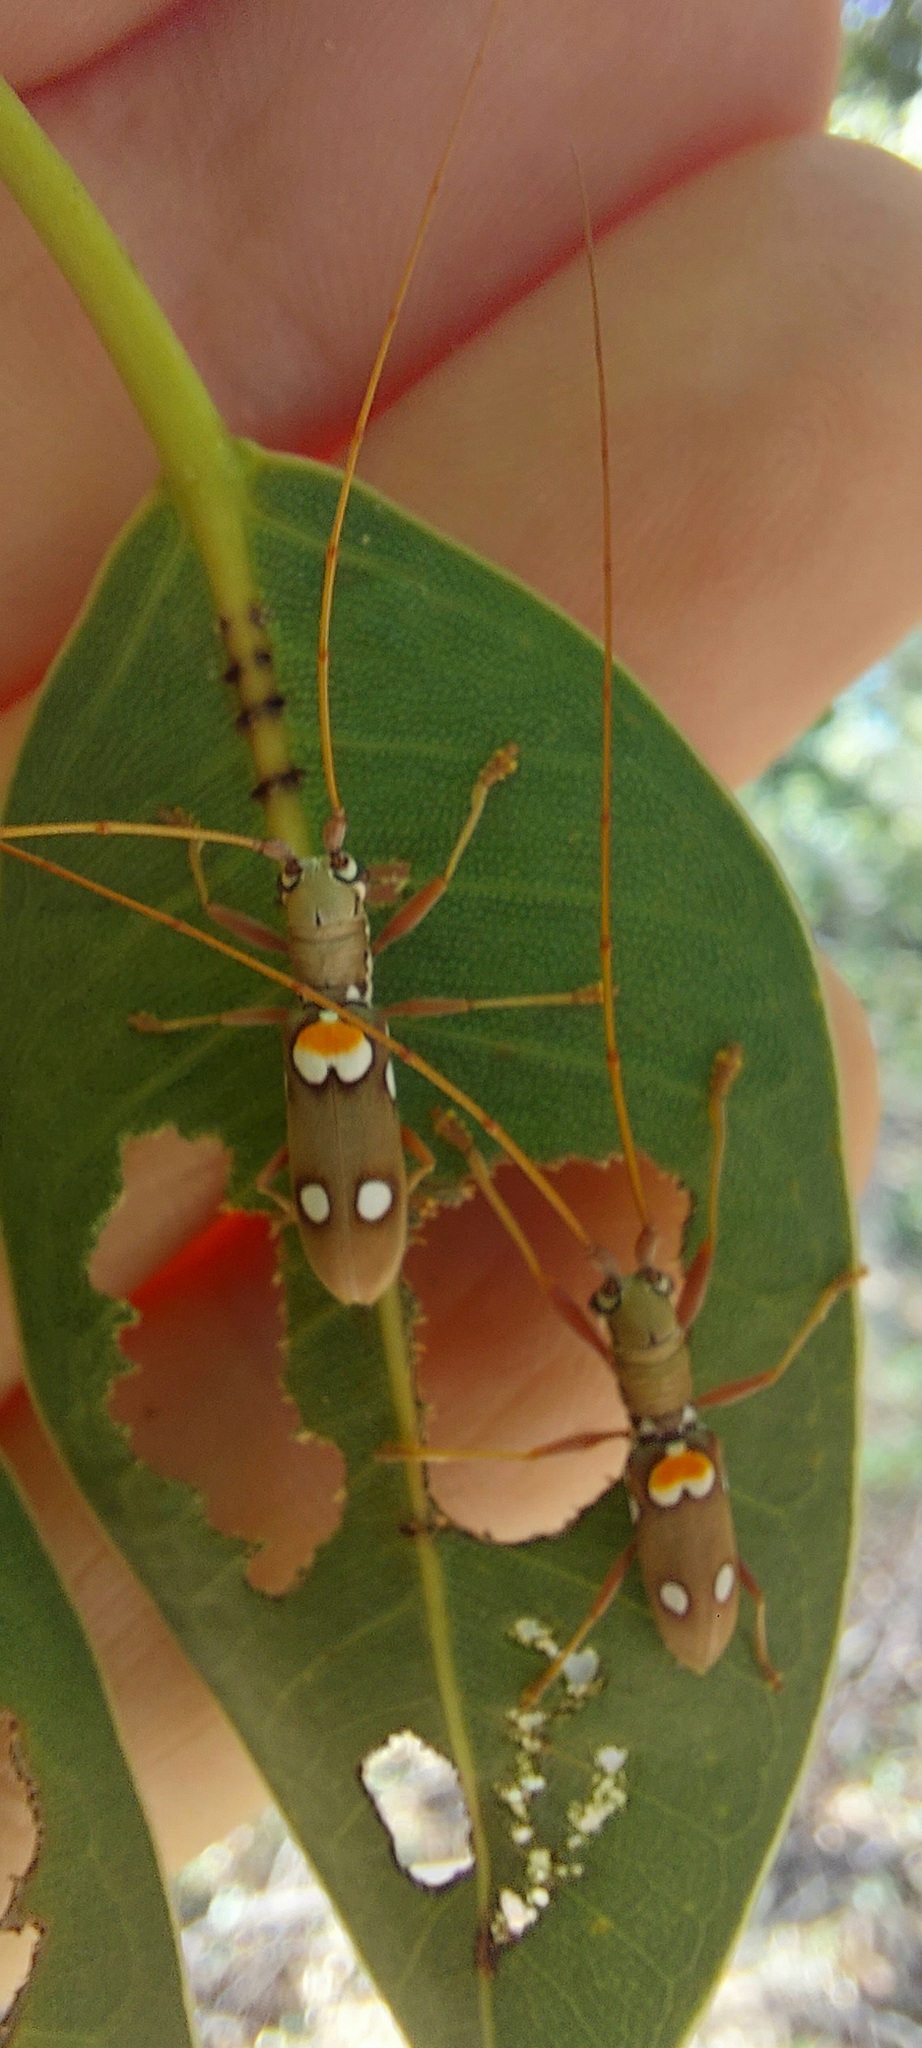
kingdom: Animalia
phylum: Arthropoda
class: Insecta
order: Coleoptera
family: Cerambycidae
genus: Olenecamptus
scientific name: Olenecamptus bilobus
